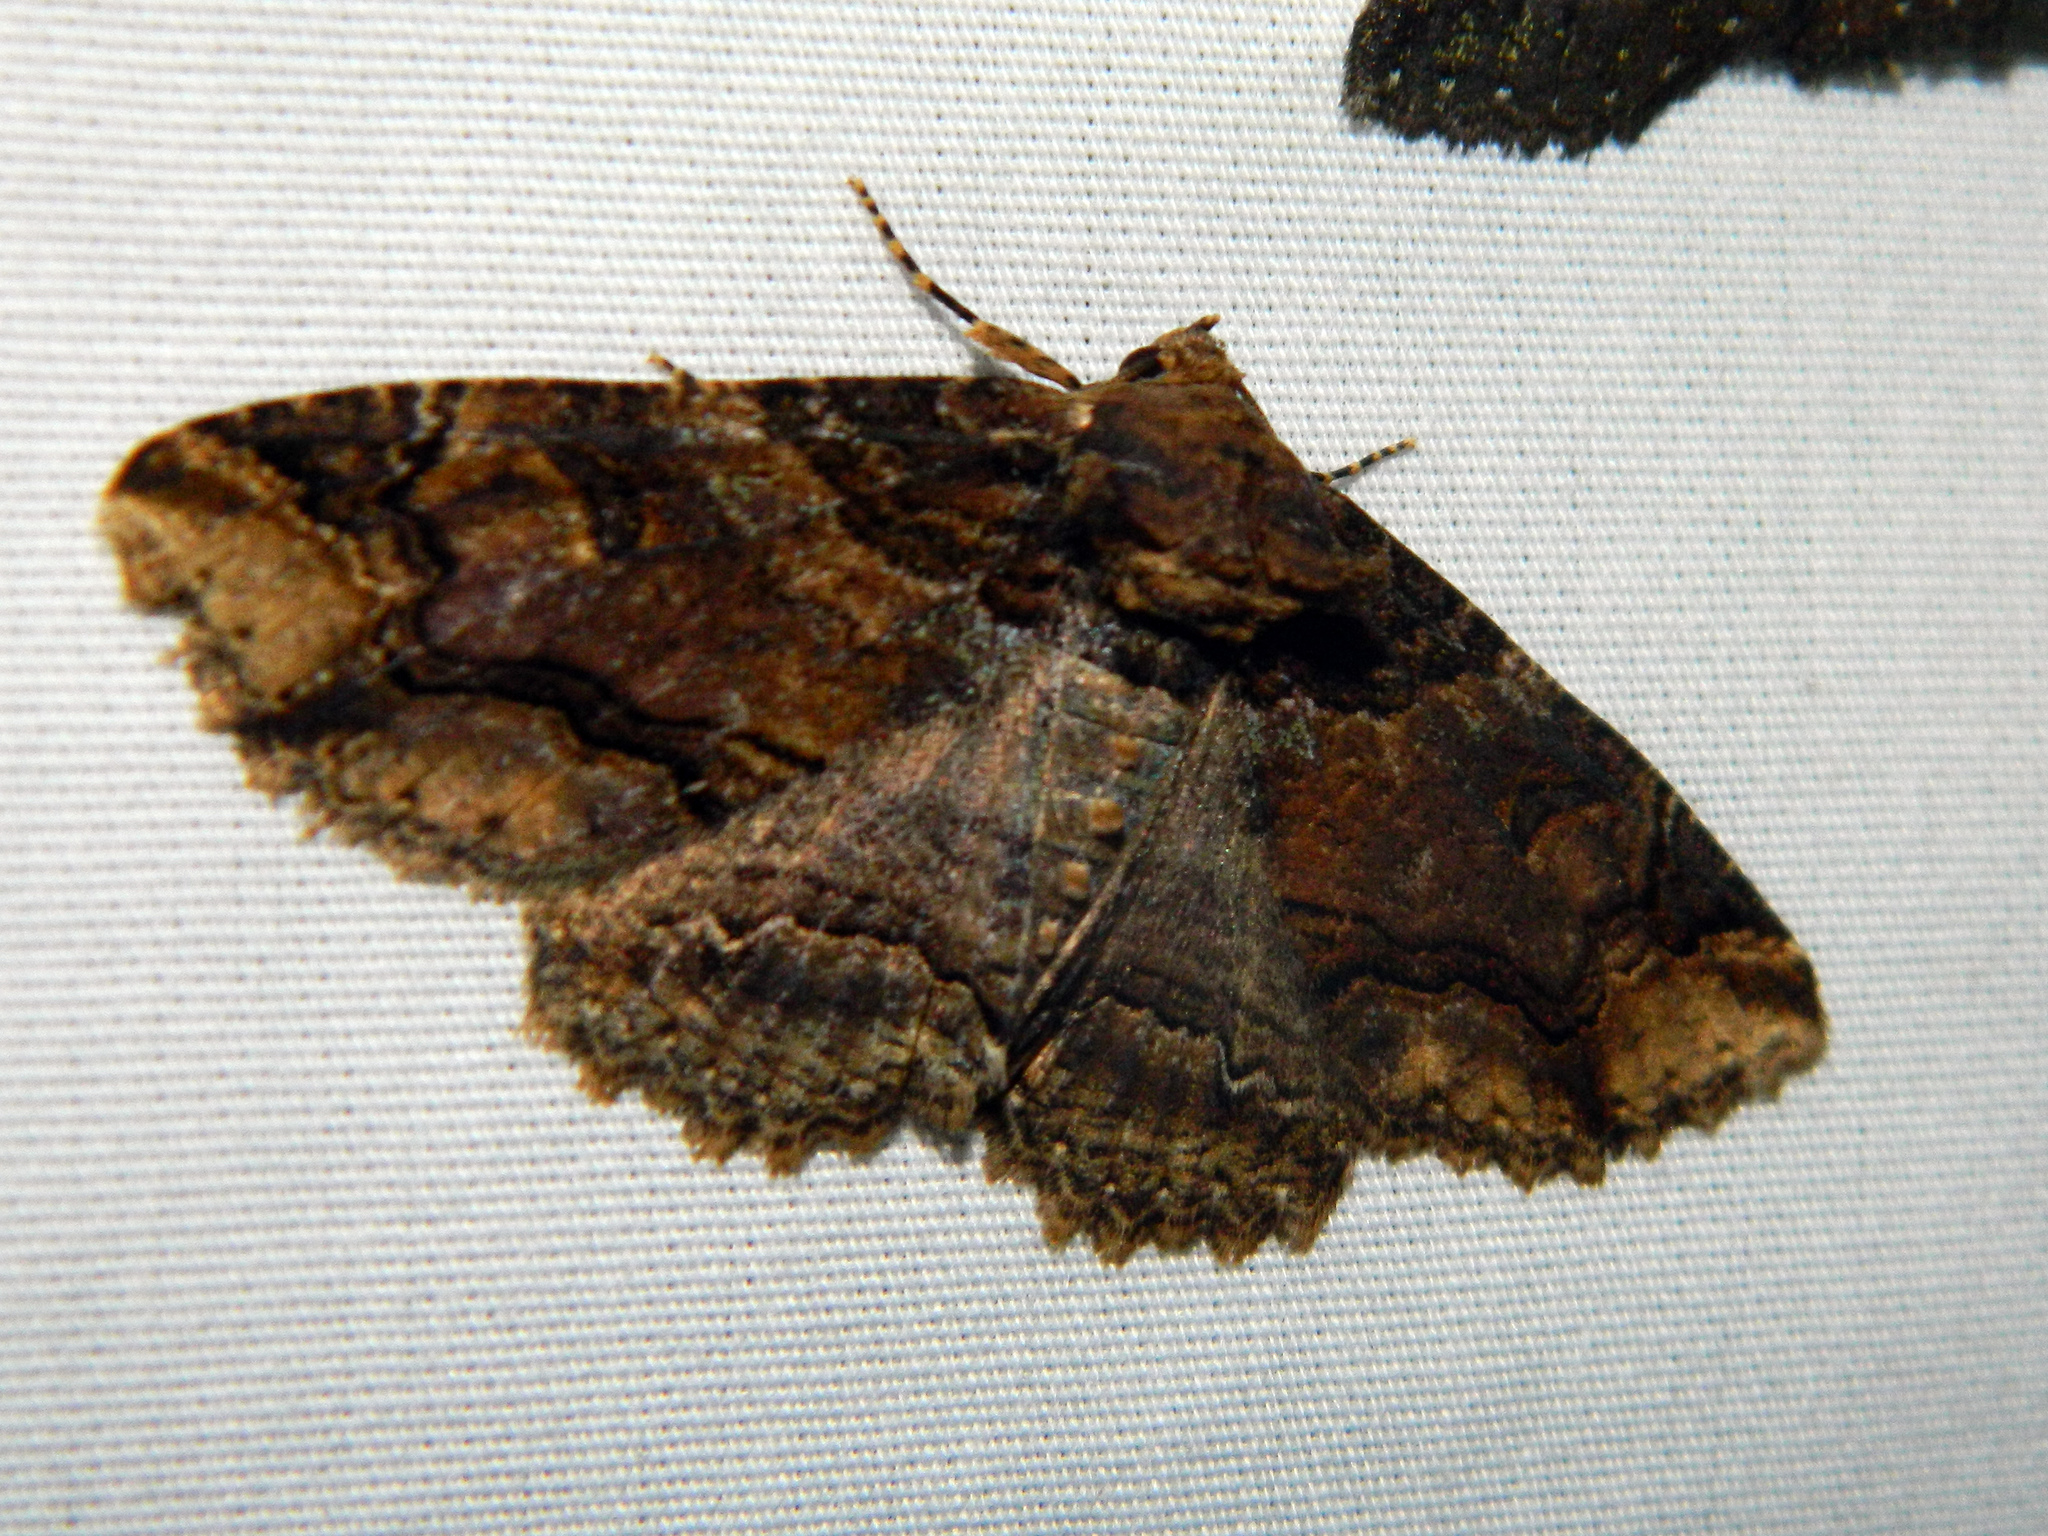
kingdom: Animalia
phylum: Arthropoda
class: Insecta
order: Lepidoptera
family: Erebidae
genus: Zale
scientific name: Zale minerea
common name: Colorful zale moth
